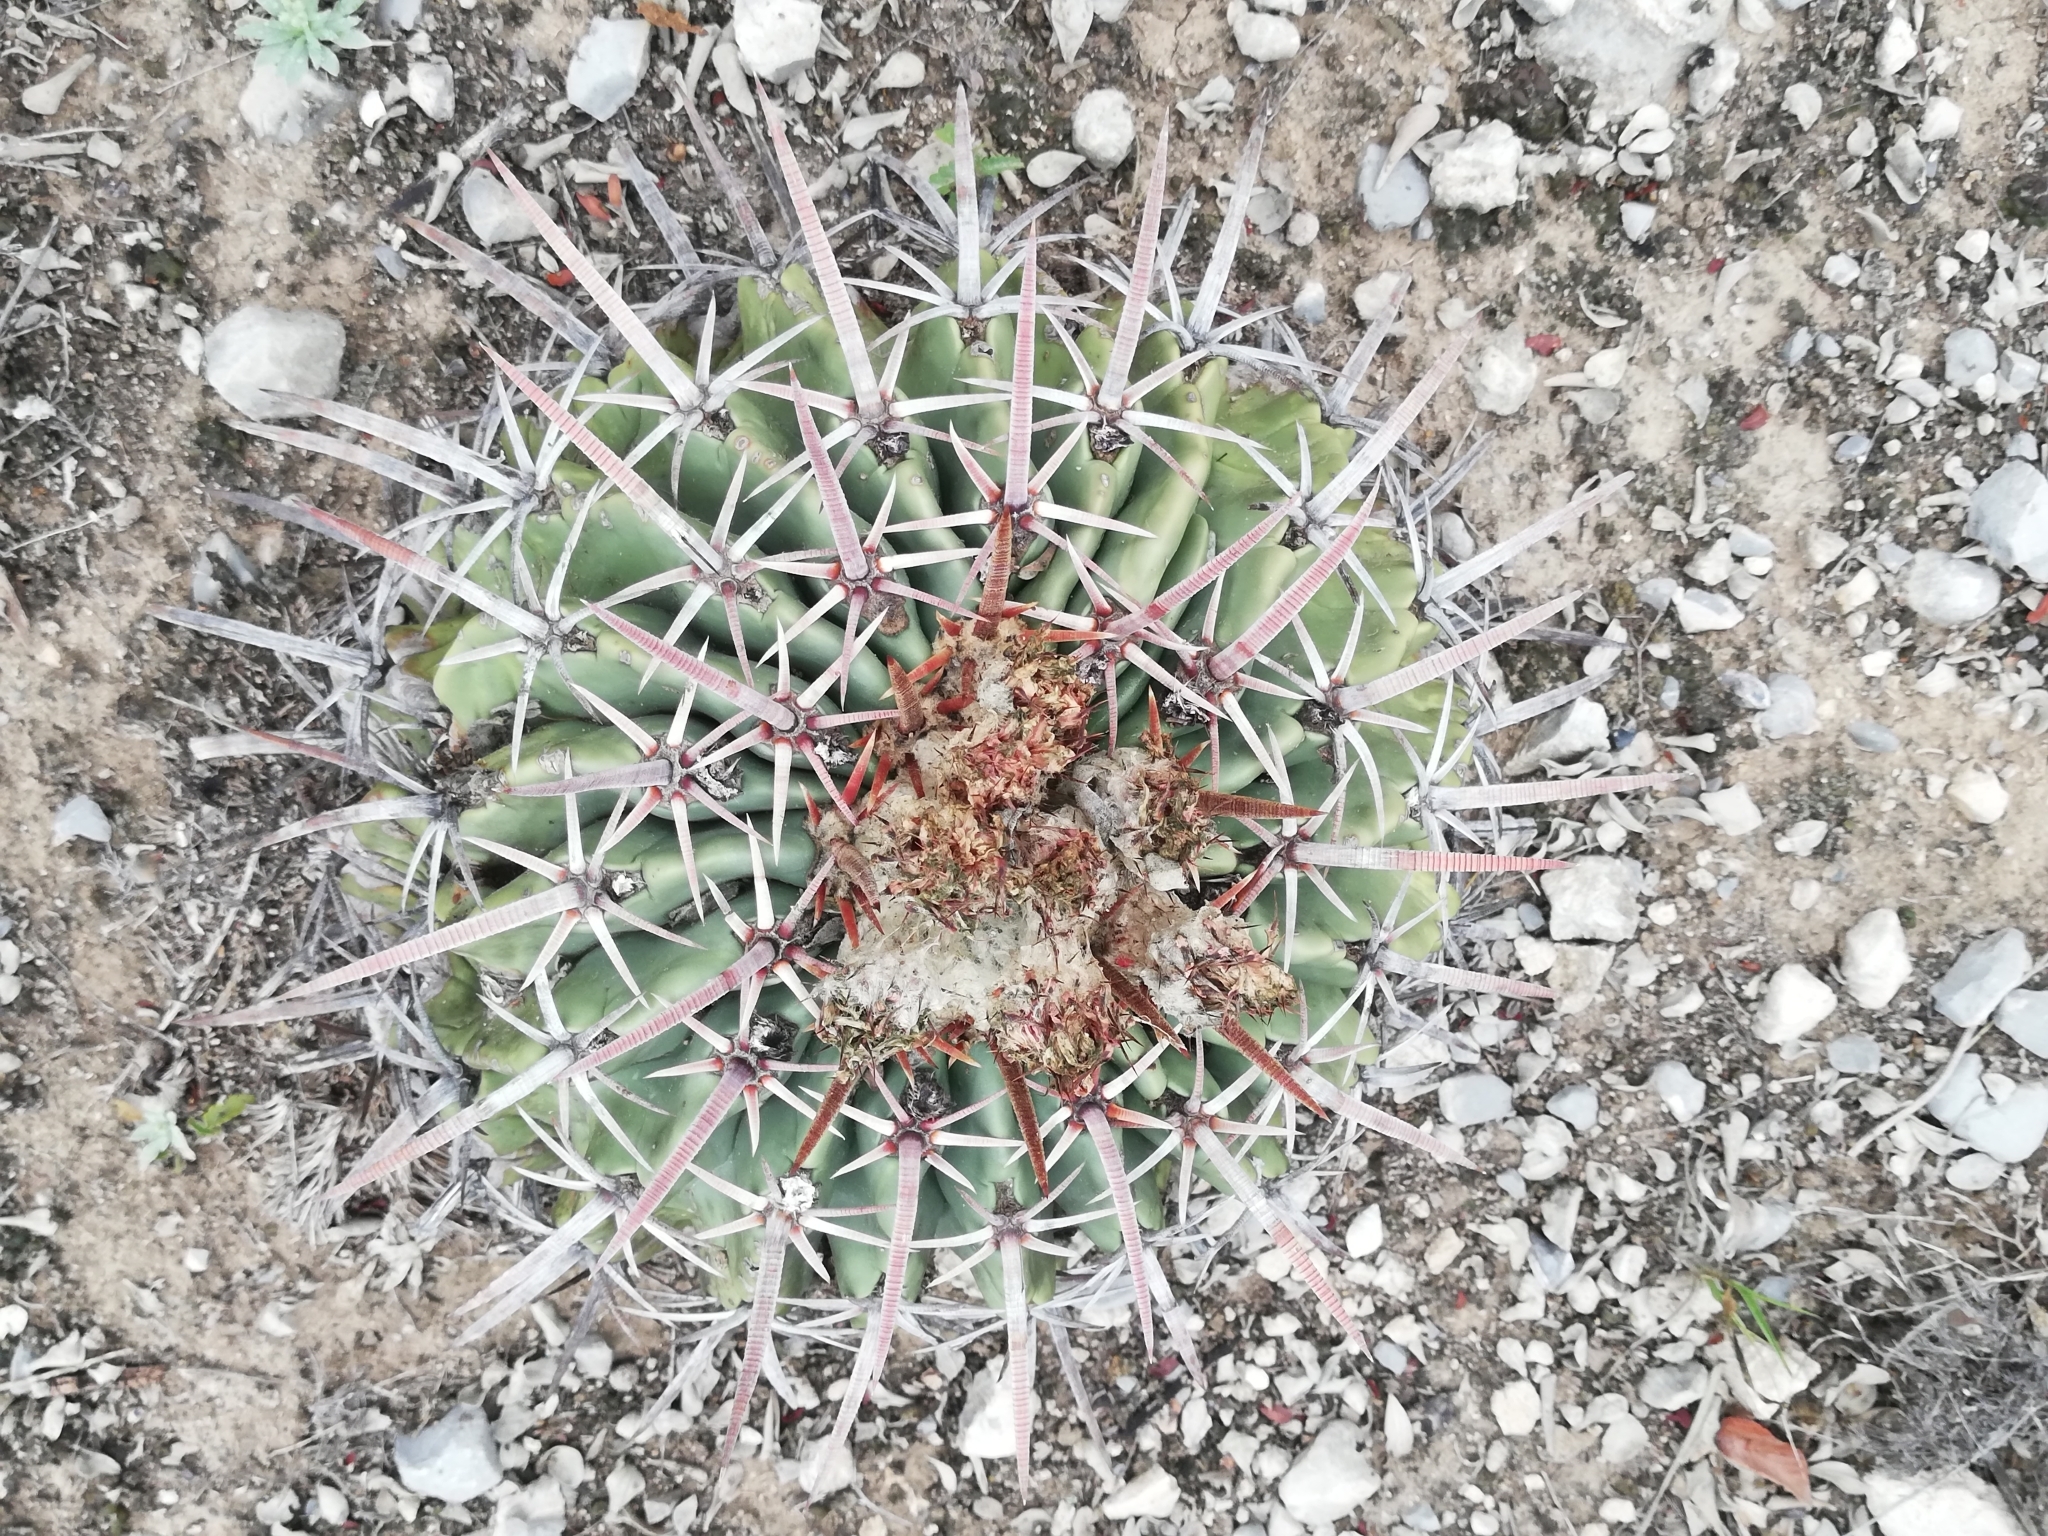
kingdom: Plantae
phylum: Tracheophyta
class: Magnoliopsida
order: Caryophyllales
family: Cactaceae
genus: Echinocactus
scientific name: Echinocactus texensis
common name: Devil's pincushion
